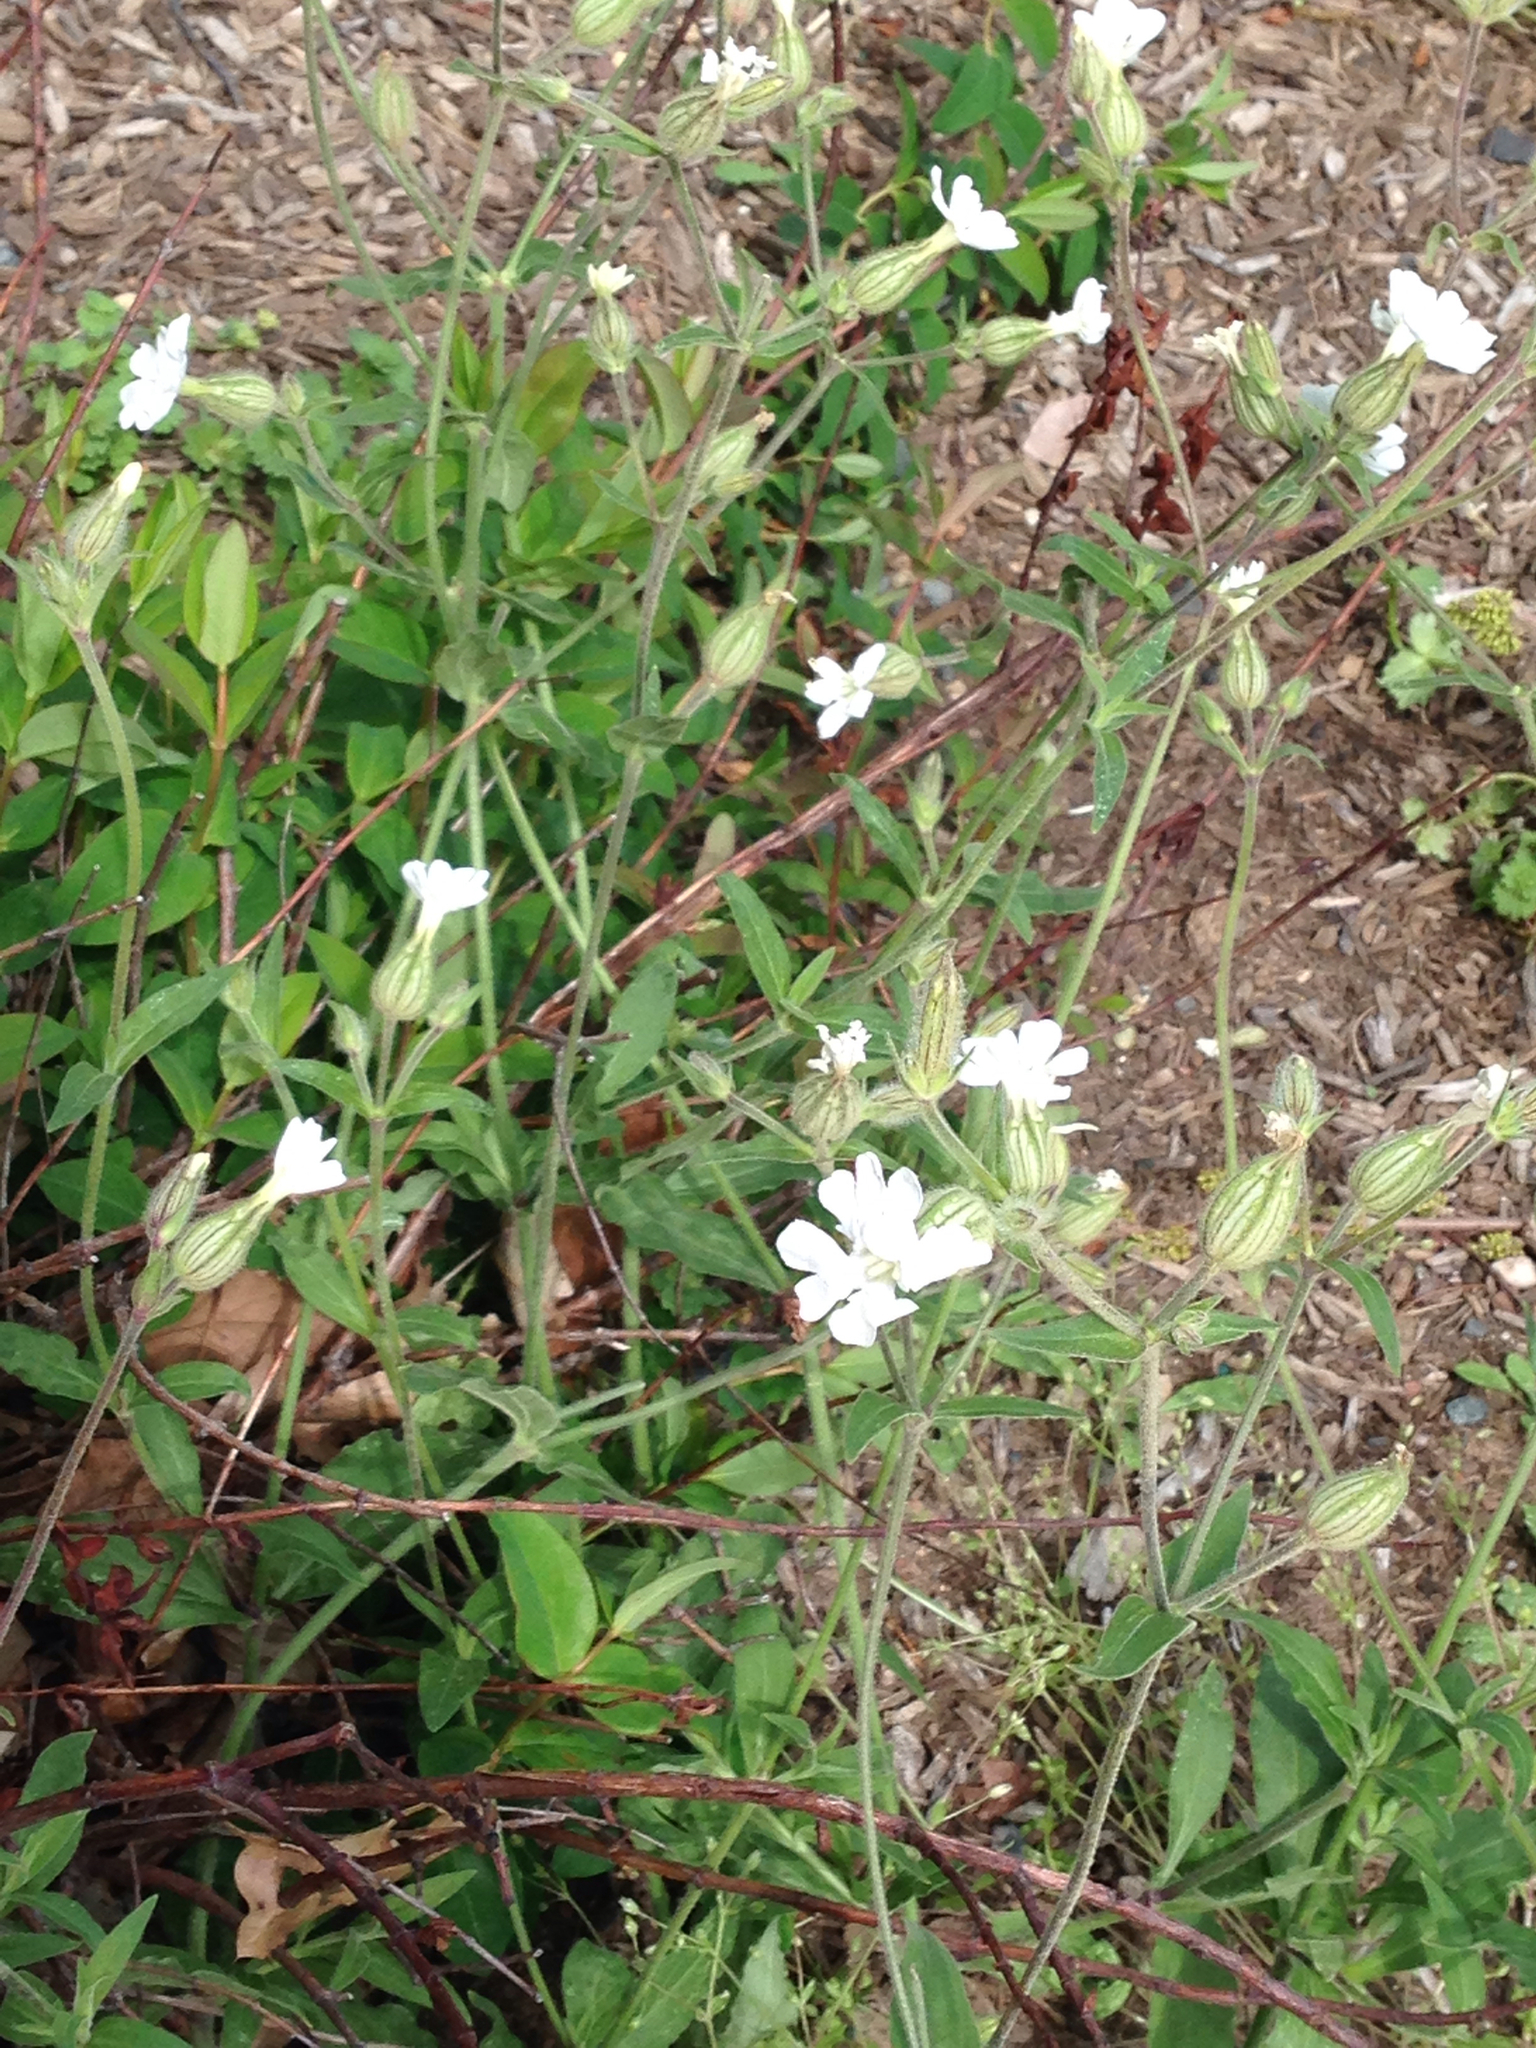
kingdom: Plantae
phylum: Tracheophyta
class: Magnoliopsida
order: Caryophyllales
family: Caryophyllaceae
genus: Silene
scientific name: Silene latifolia
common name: White campion
